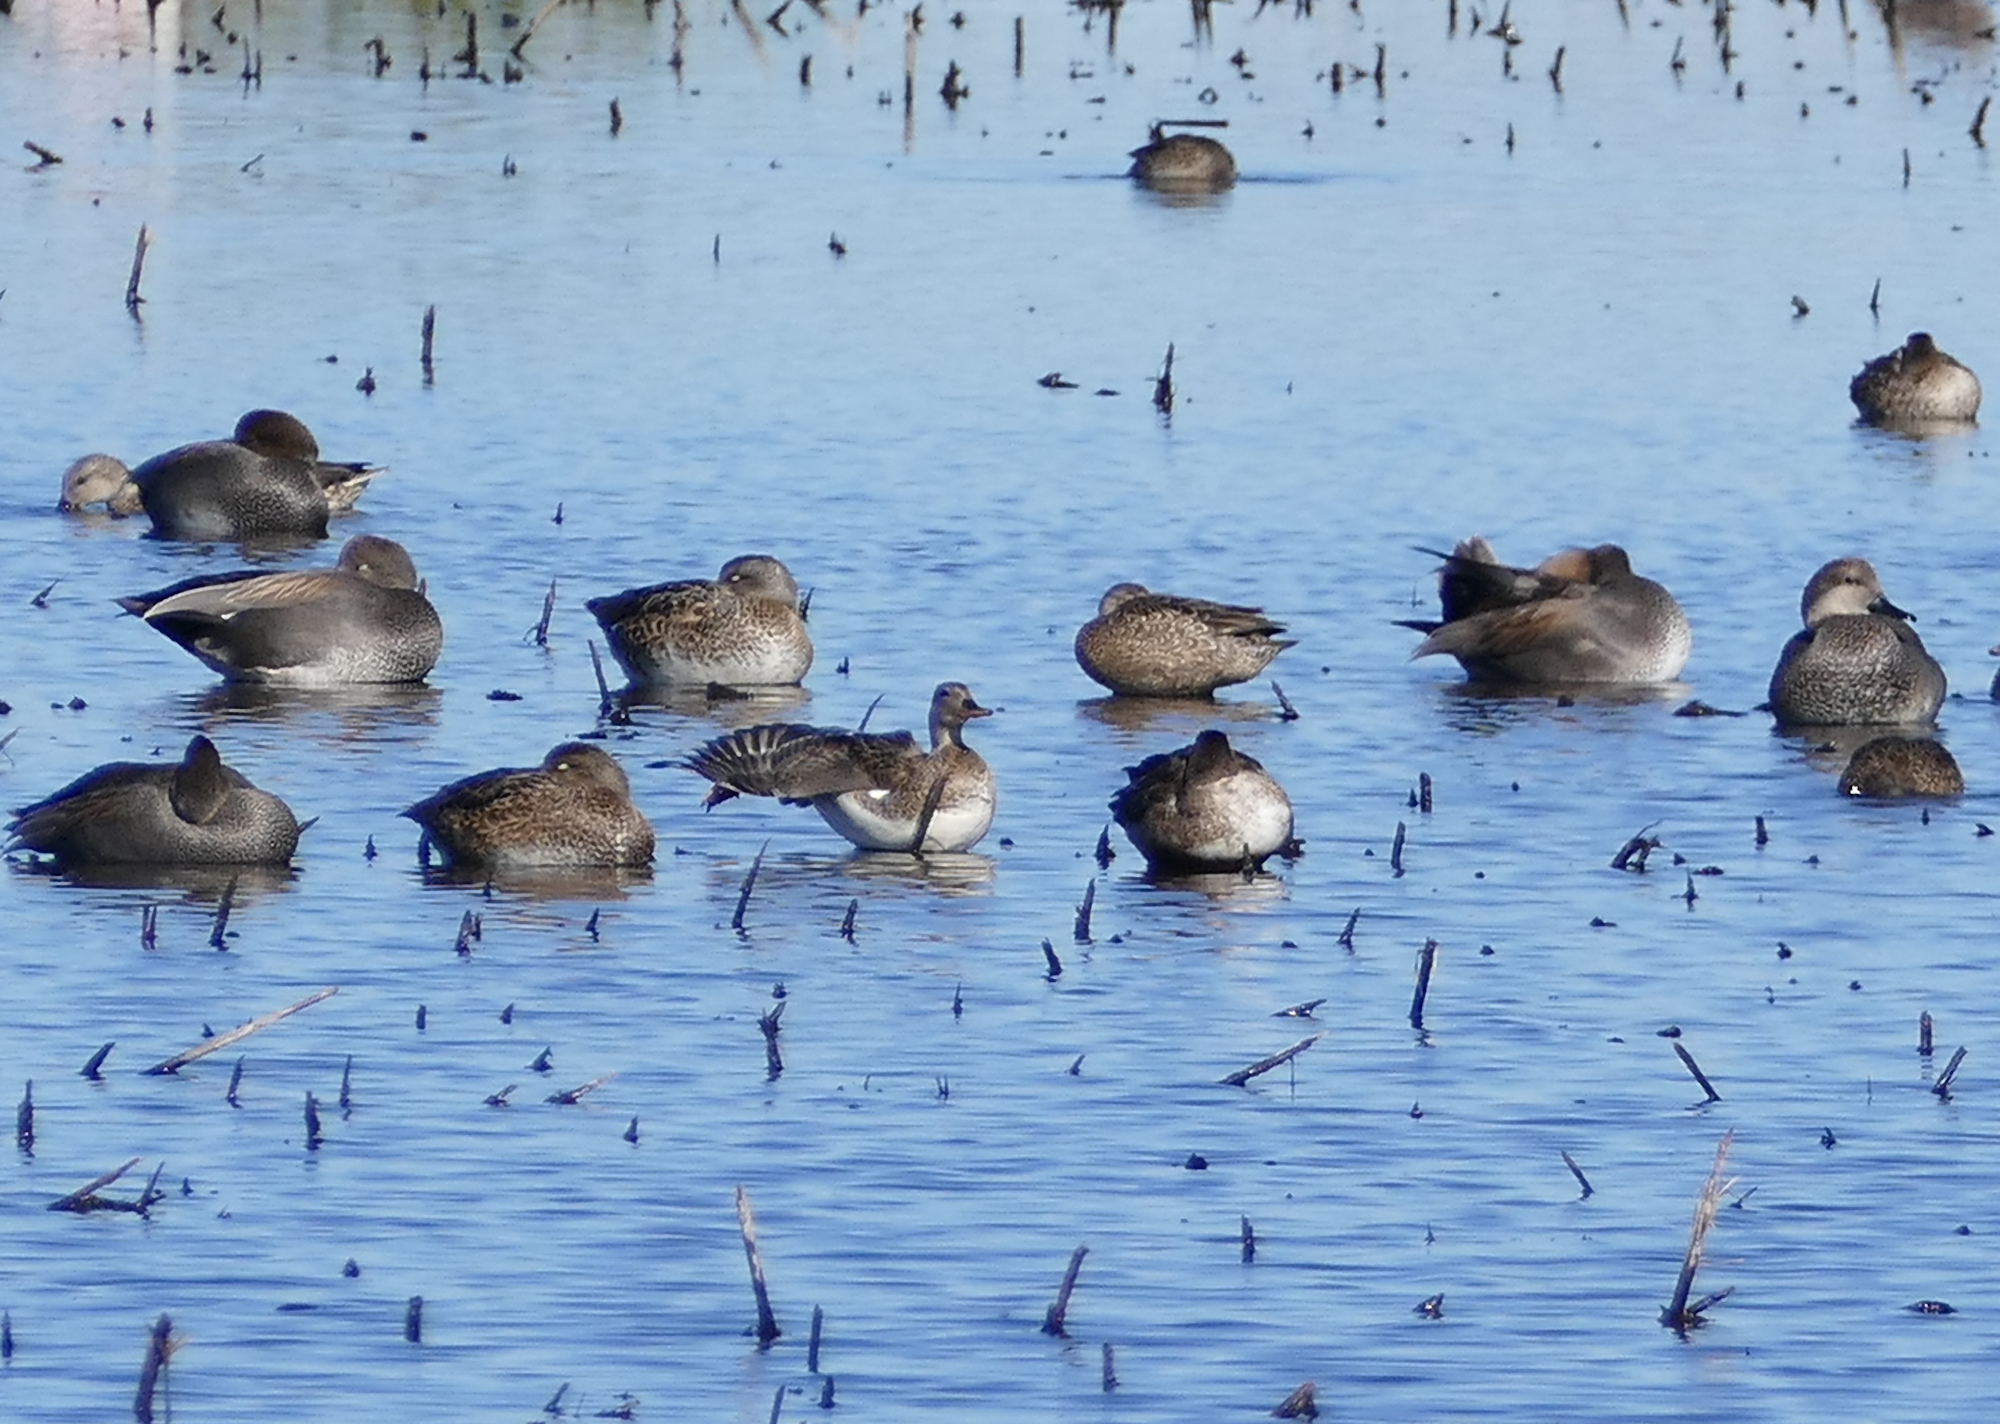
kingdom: Animalia
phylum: Chordata
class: Aves
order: Anseriformes
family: Anatidae
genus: Mareca
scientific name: Mareca strepera
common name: Gadwall
